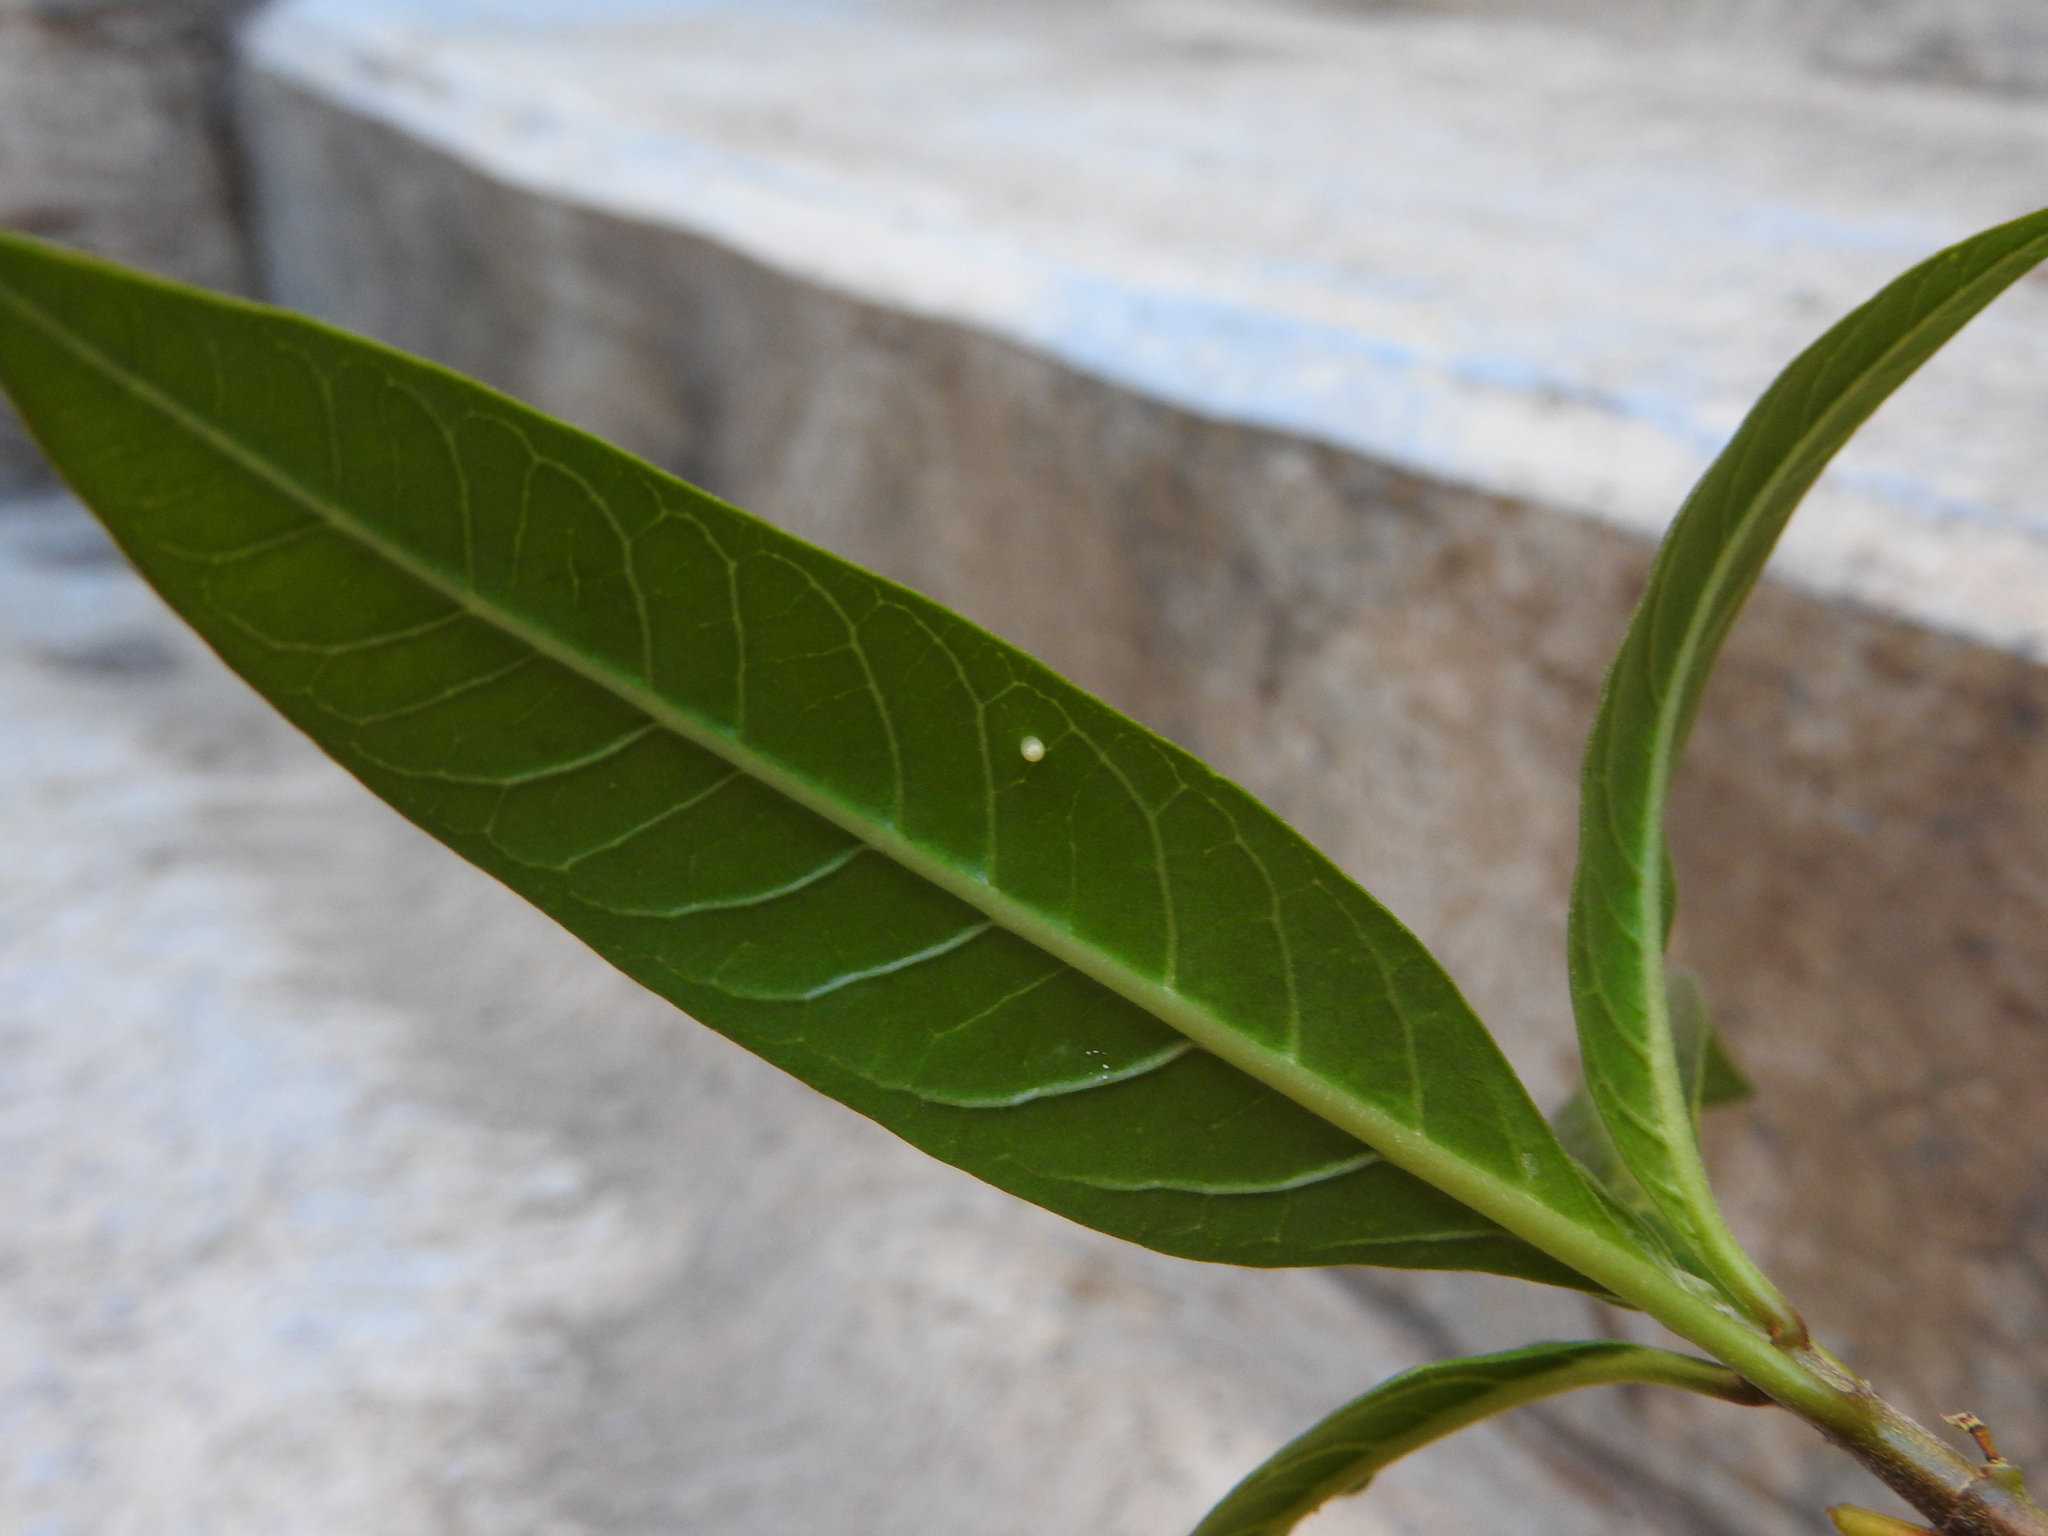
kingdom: Animalia
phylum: Arthropoda
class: Insecta
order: Lepidoptera
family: Nymphalidae
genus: Danaus
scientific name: Danaus plexippus
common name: Monarch
